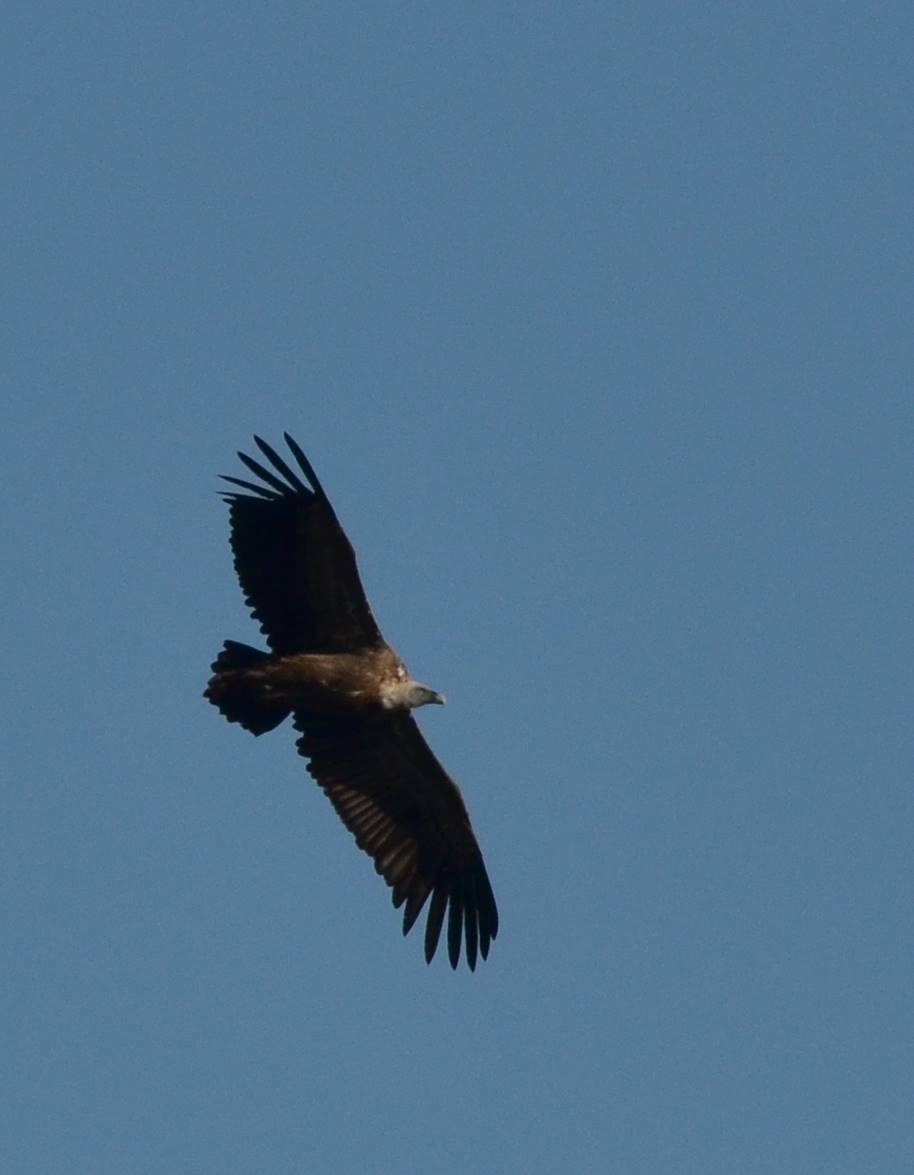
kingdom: Animalia
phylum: Chordata
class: Aves
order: Accipitriformes
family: Accipitridae
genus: Gyps
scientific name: Gyps fulvus
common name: Griffon vulture
